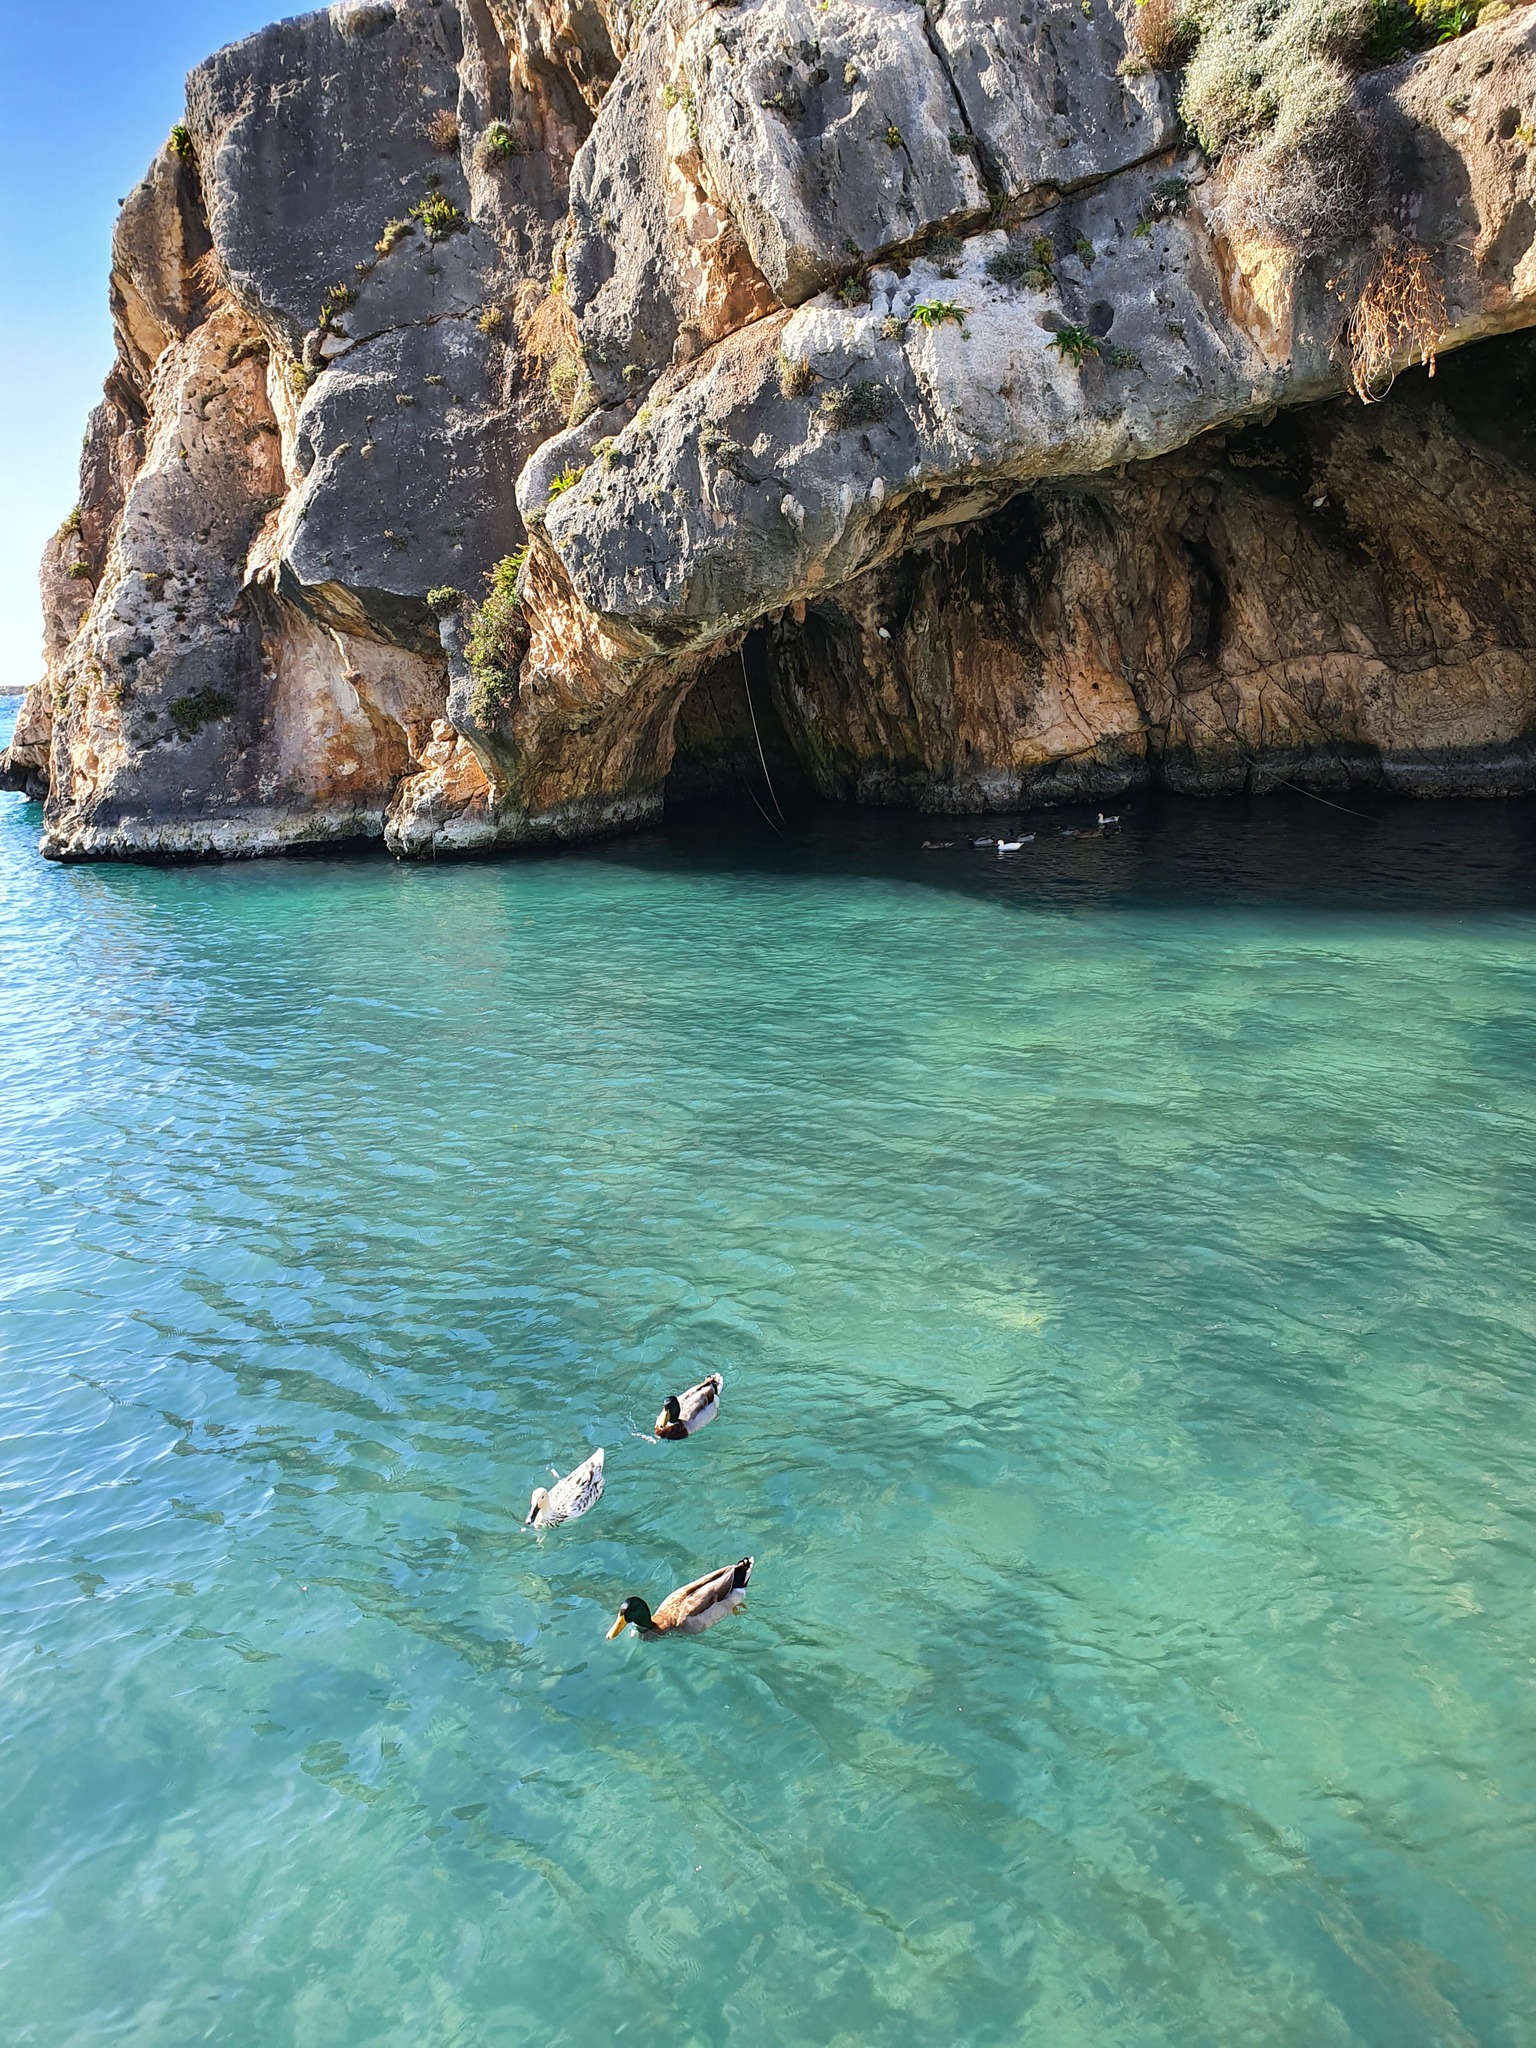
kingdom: Animalia
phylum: Chordata
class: Aves
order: Anseriformes
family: Anatidae
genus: Anas
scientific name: Anas platyrhynchos
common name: Mallard
